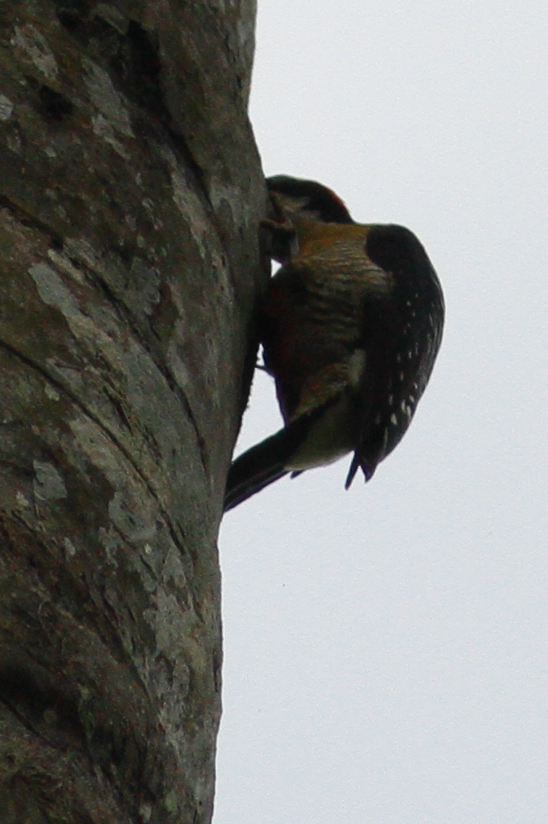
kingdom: Animalia
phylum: Chordata
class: Aves
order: Piciformes
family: Picidae
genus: Melanerpes
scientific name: Melanerpes pucherani
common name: Black-cheeked woodpecker
